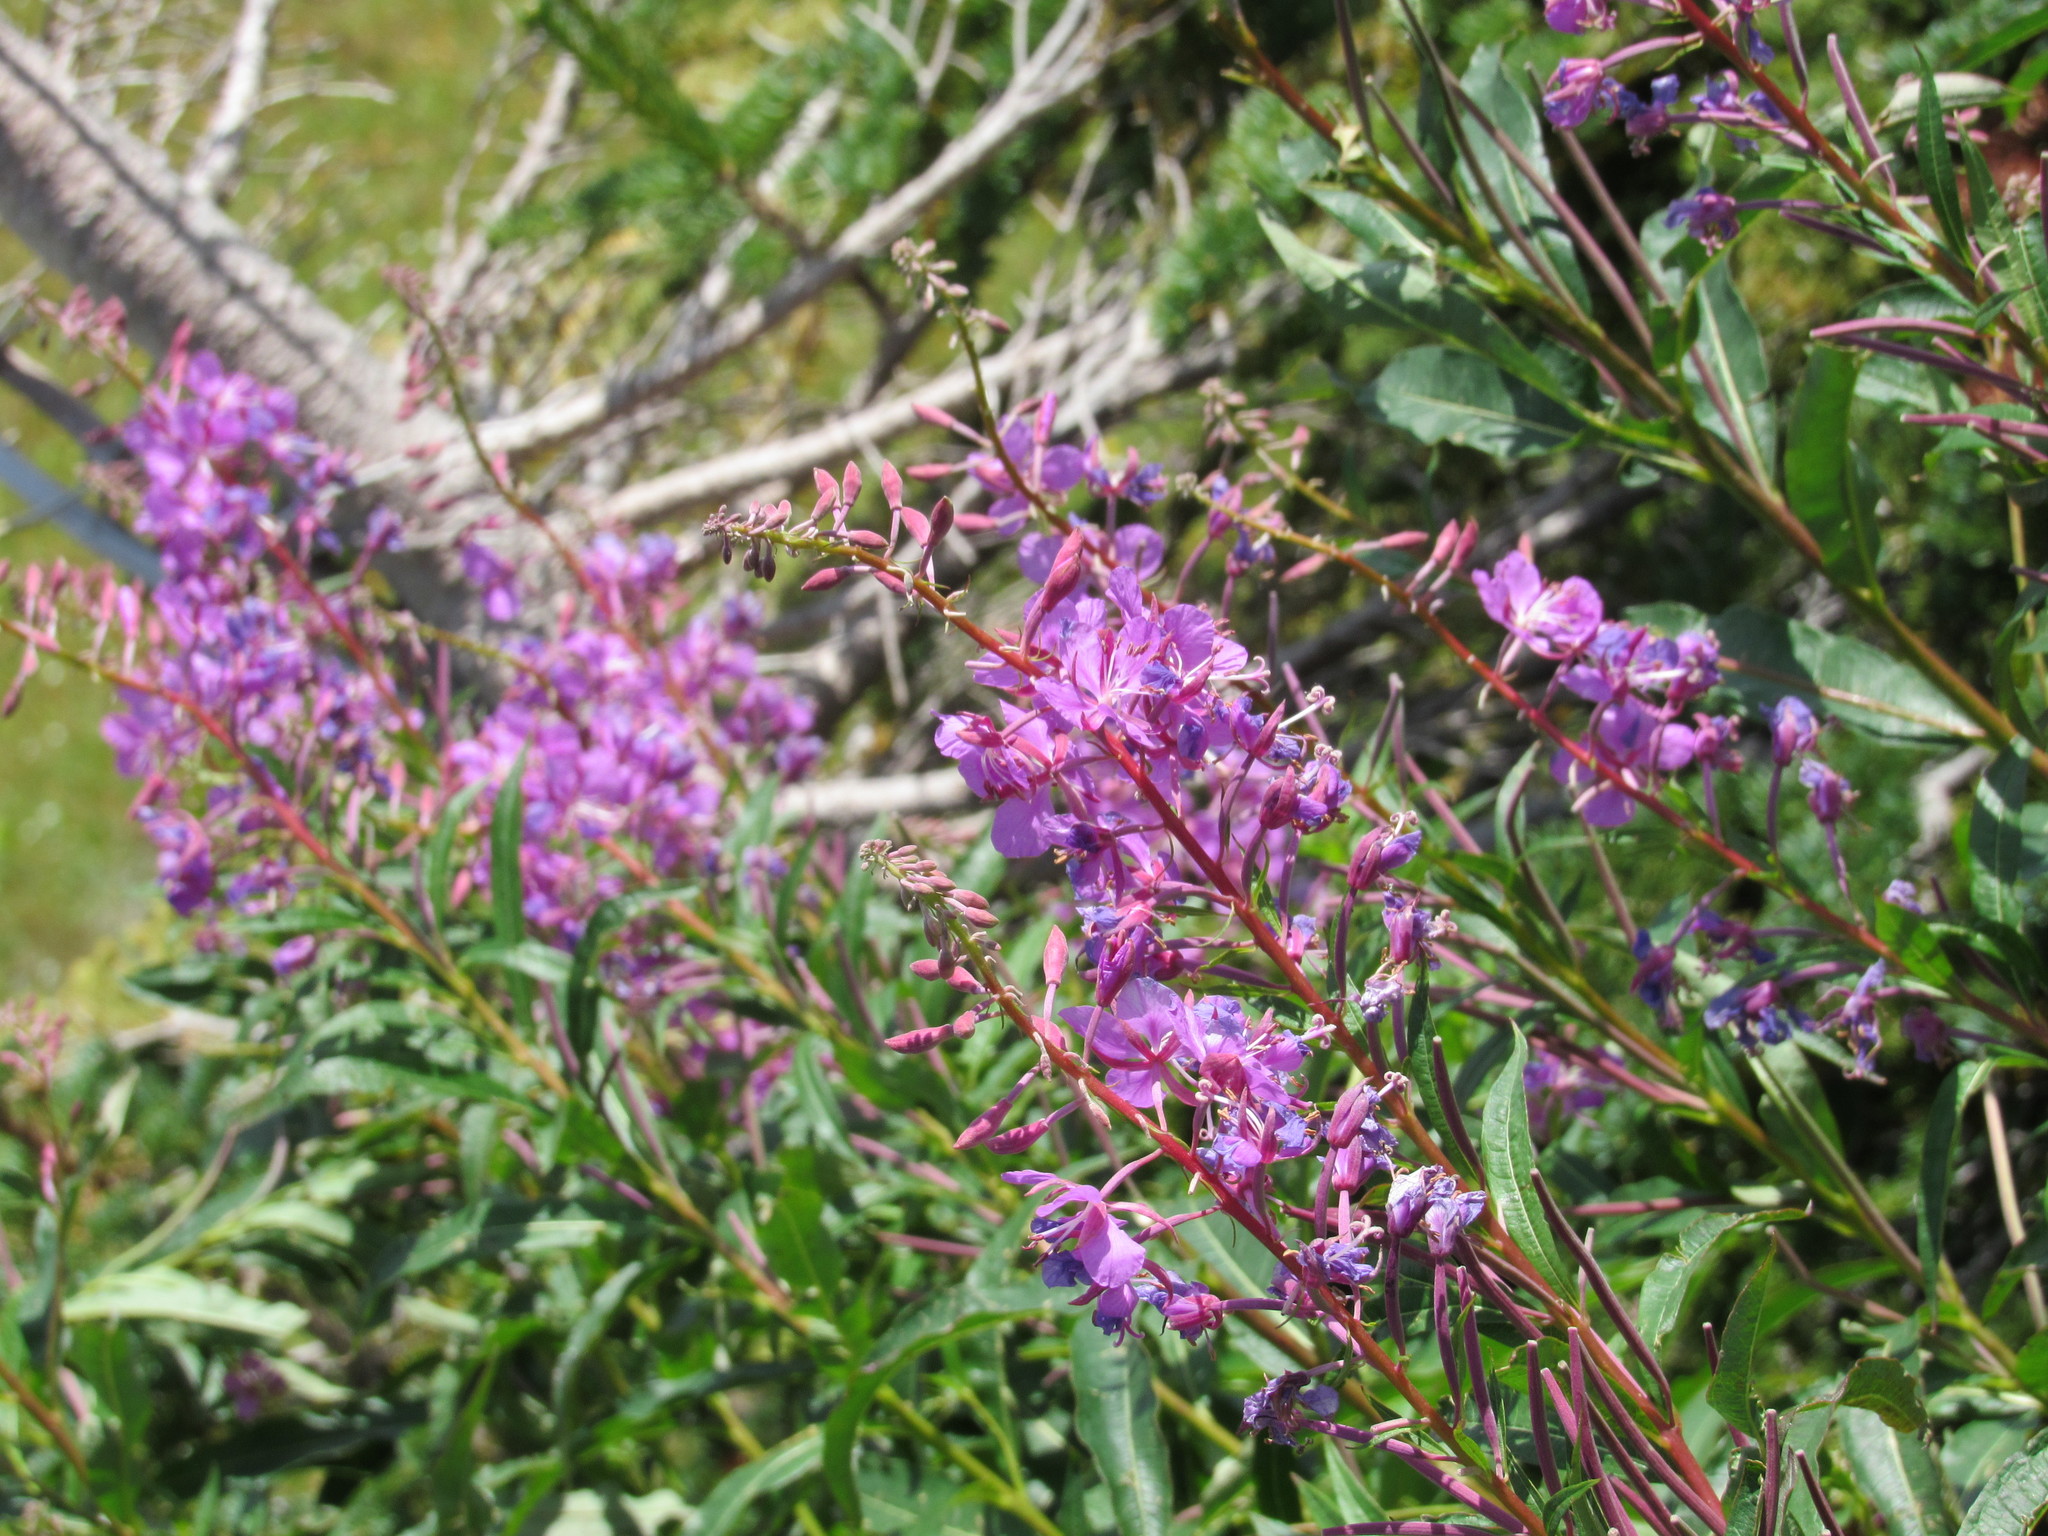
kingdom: Plantae
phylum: Tracheophyta
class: Magnoliopsida
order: Myrtales
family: Onagraceae
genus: Chamaenerion
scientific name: Chamaenerion angustifolium
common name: Fireweed
